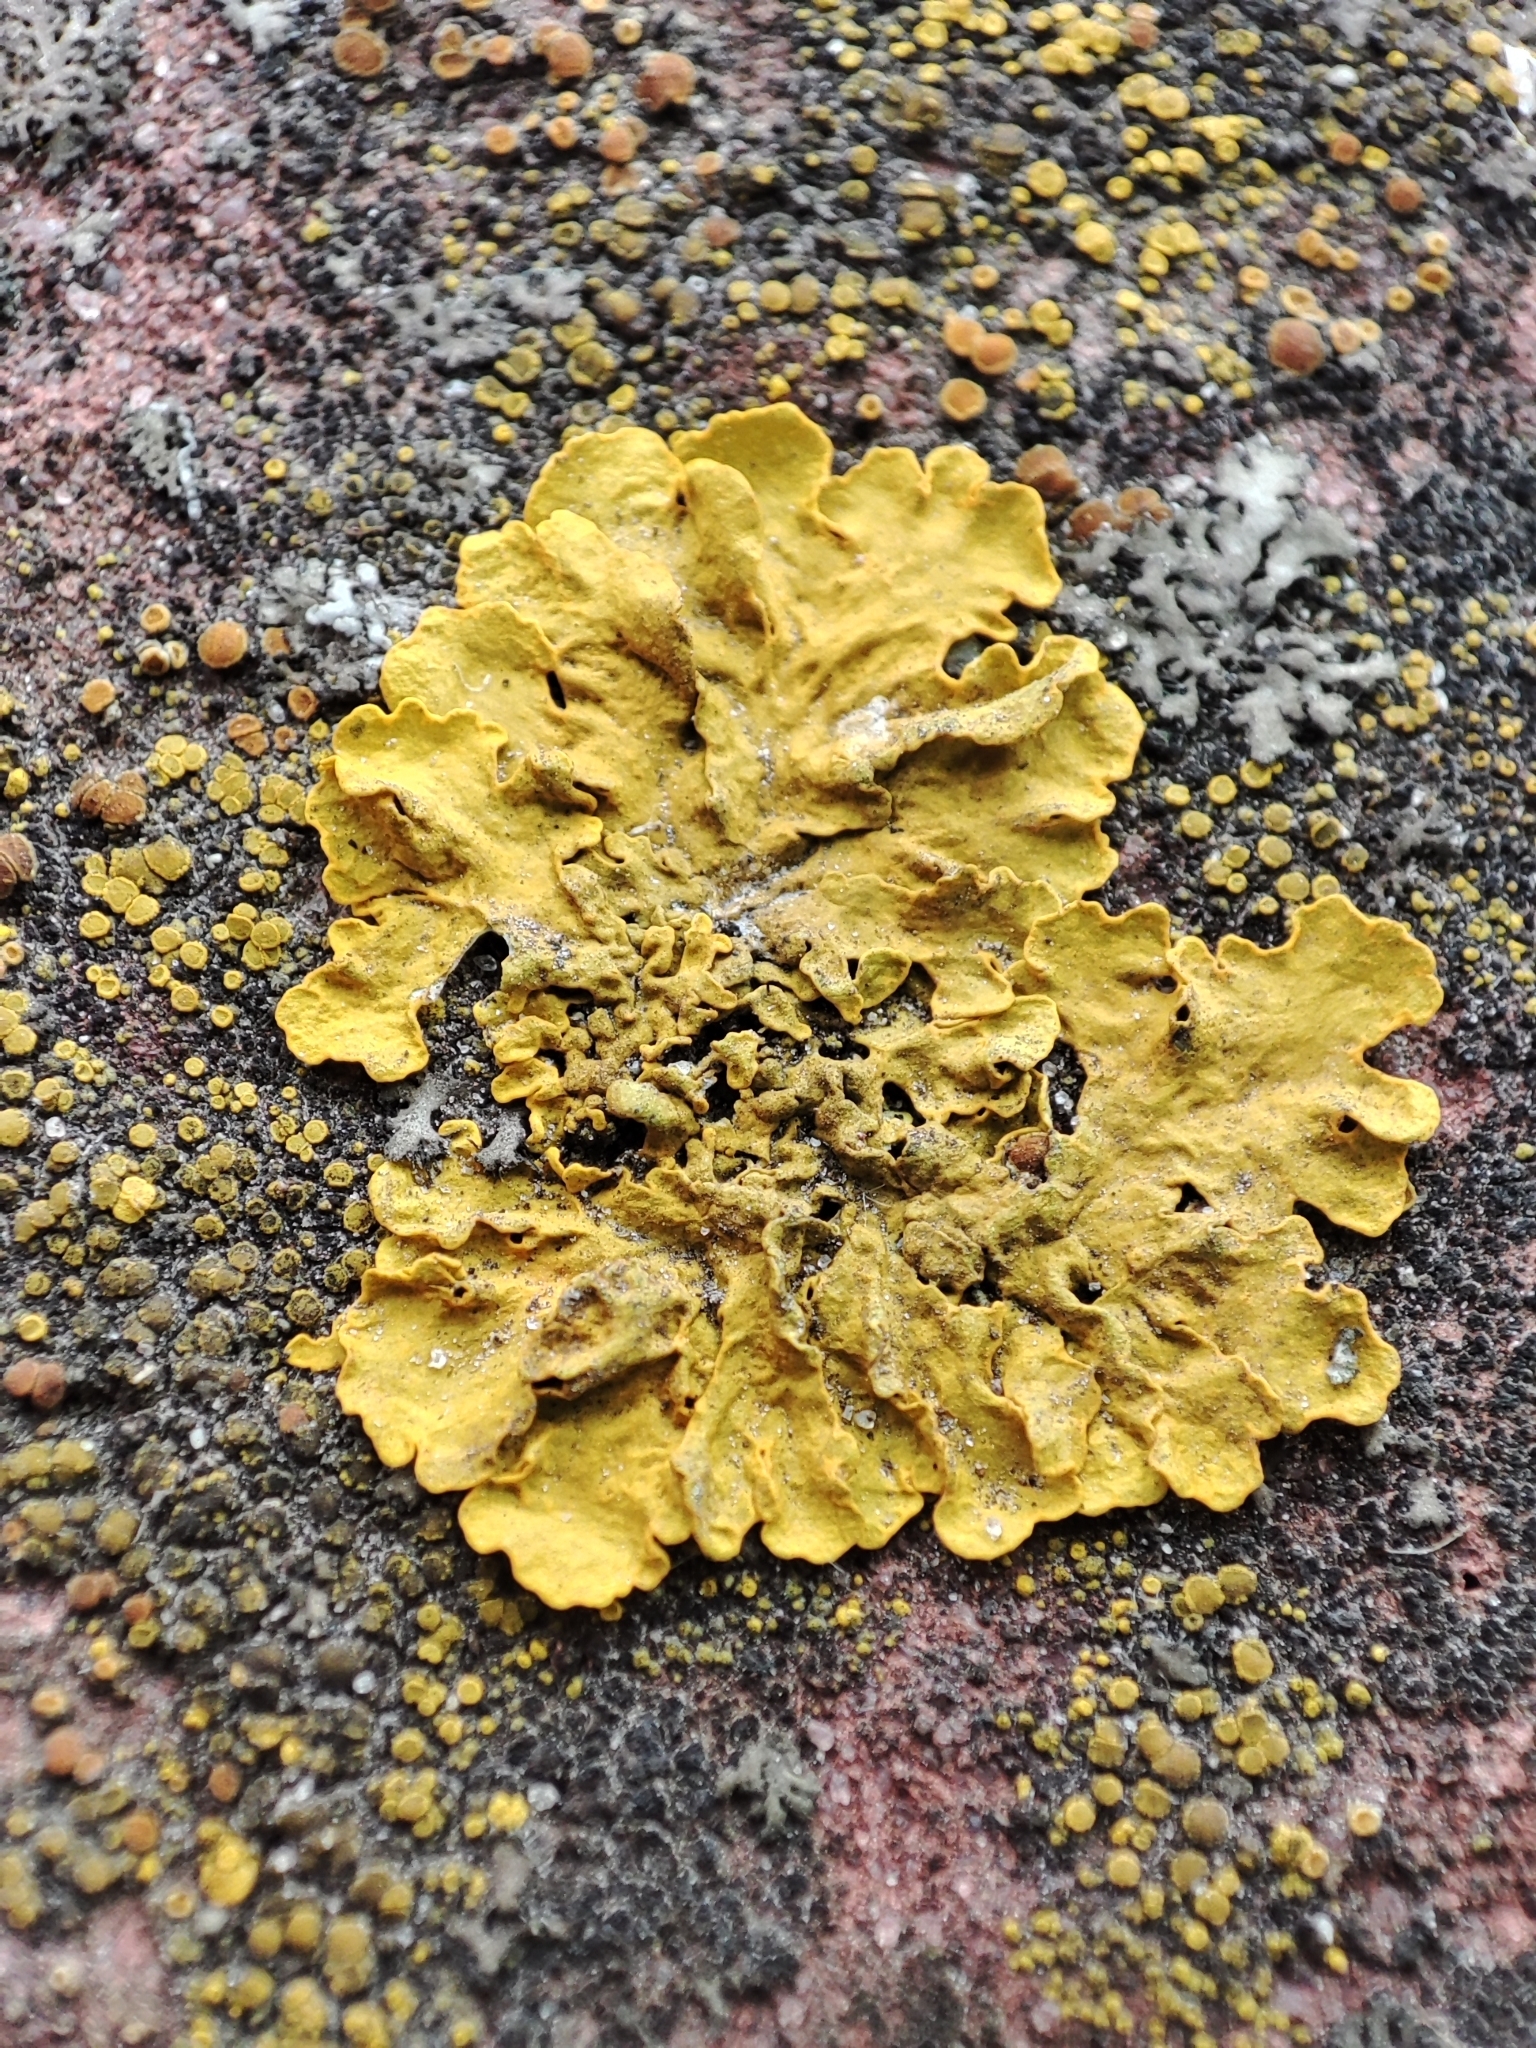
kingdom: Fungi
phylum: Ascomycota
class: Lecanoromycetes
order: Teloschistales
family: Teloschistaceae
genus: Xanthoria
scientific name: Xanthoria parietina
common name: Common orange lichen
